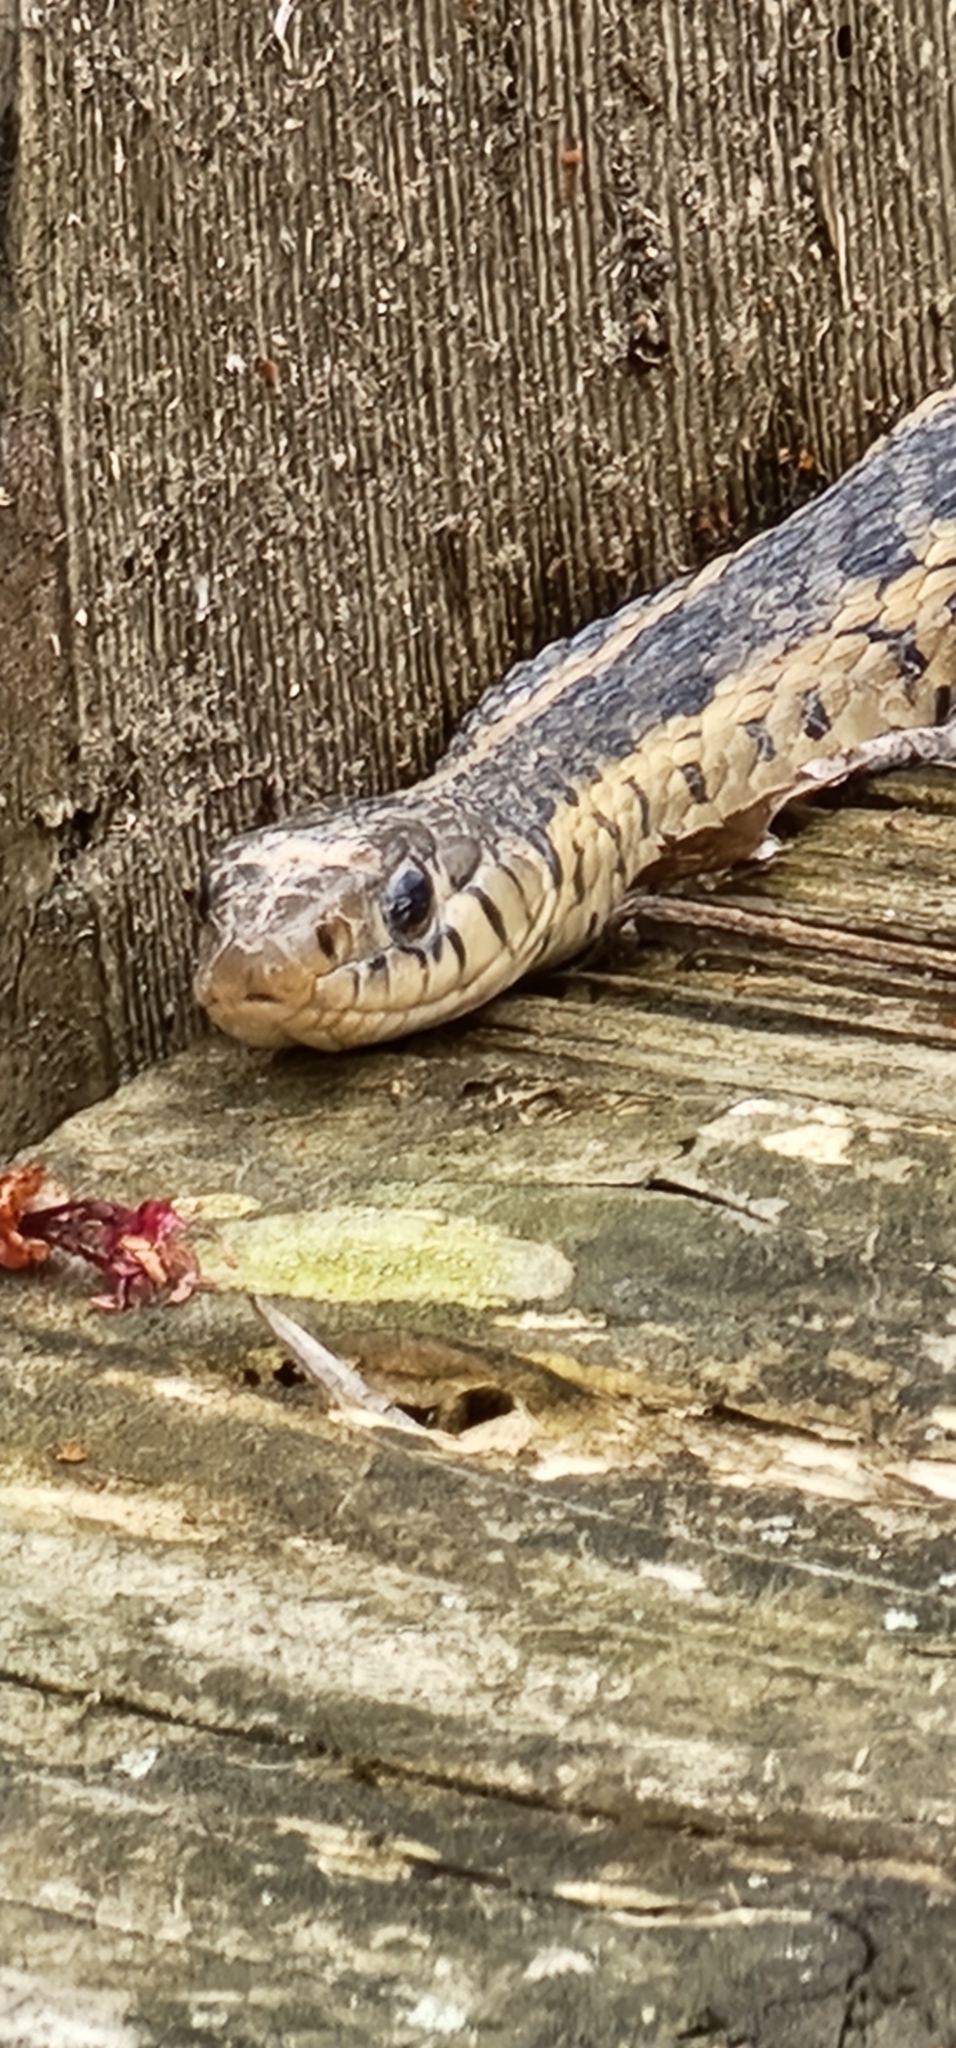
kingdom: Animalia
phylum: Chordata
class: Squamata
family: Colubridae
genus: Thamnophis
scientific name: Thamnophis sirtalis
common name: Common garter snake
